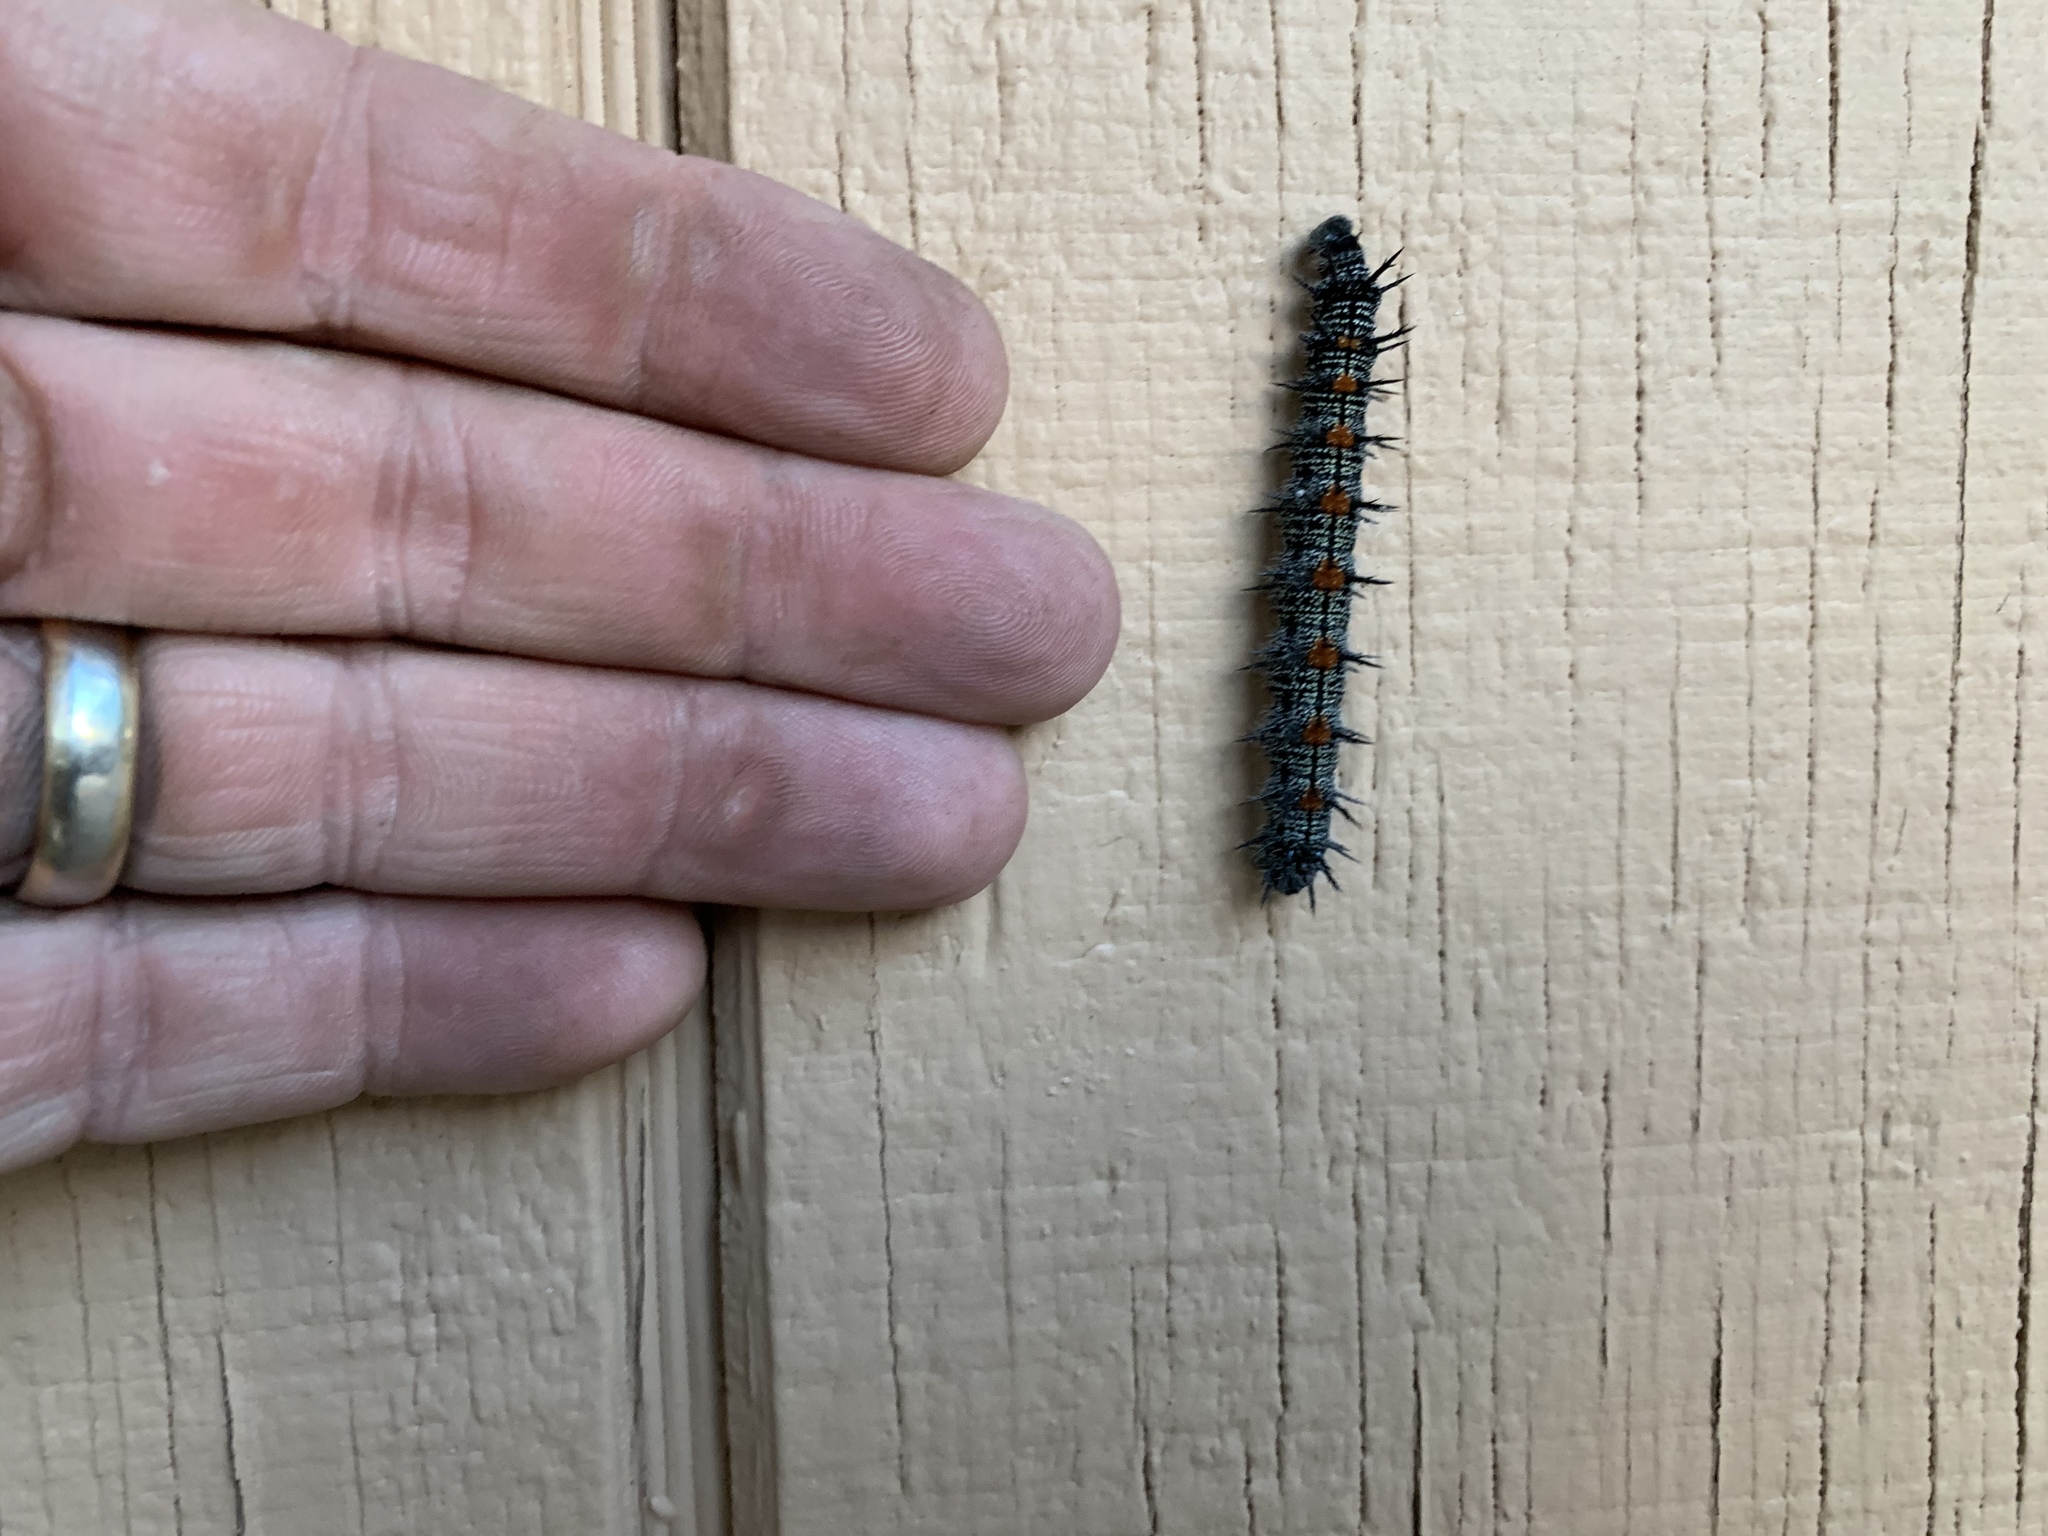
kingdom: Animalia
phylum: Arthropoda
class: Insecta
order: Lepidoptera
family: Nymphalidae
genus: Nymphalis
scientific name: Nymphalis antiopa
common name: Camberwell beauty
